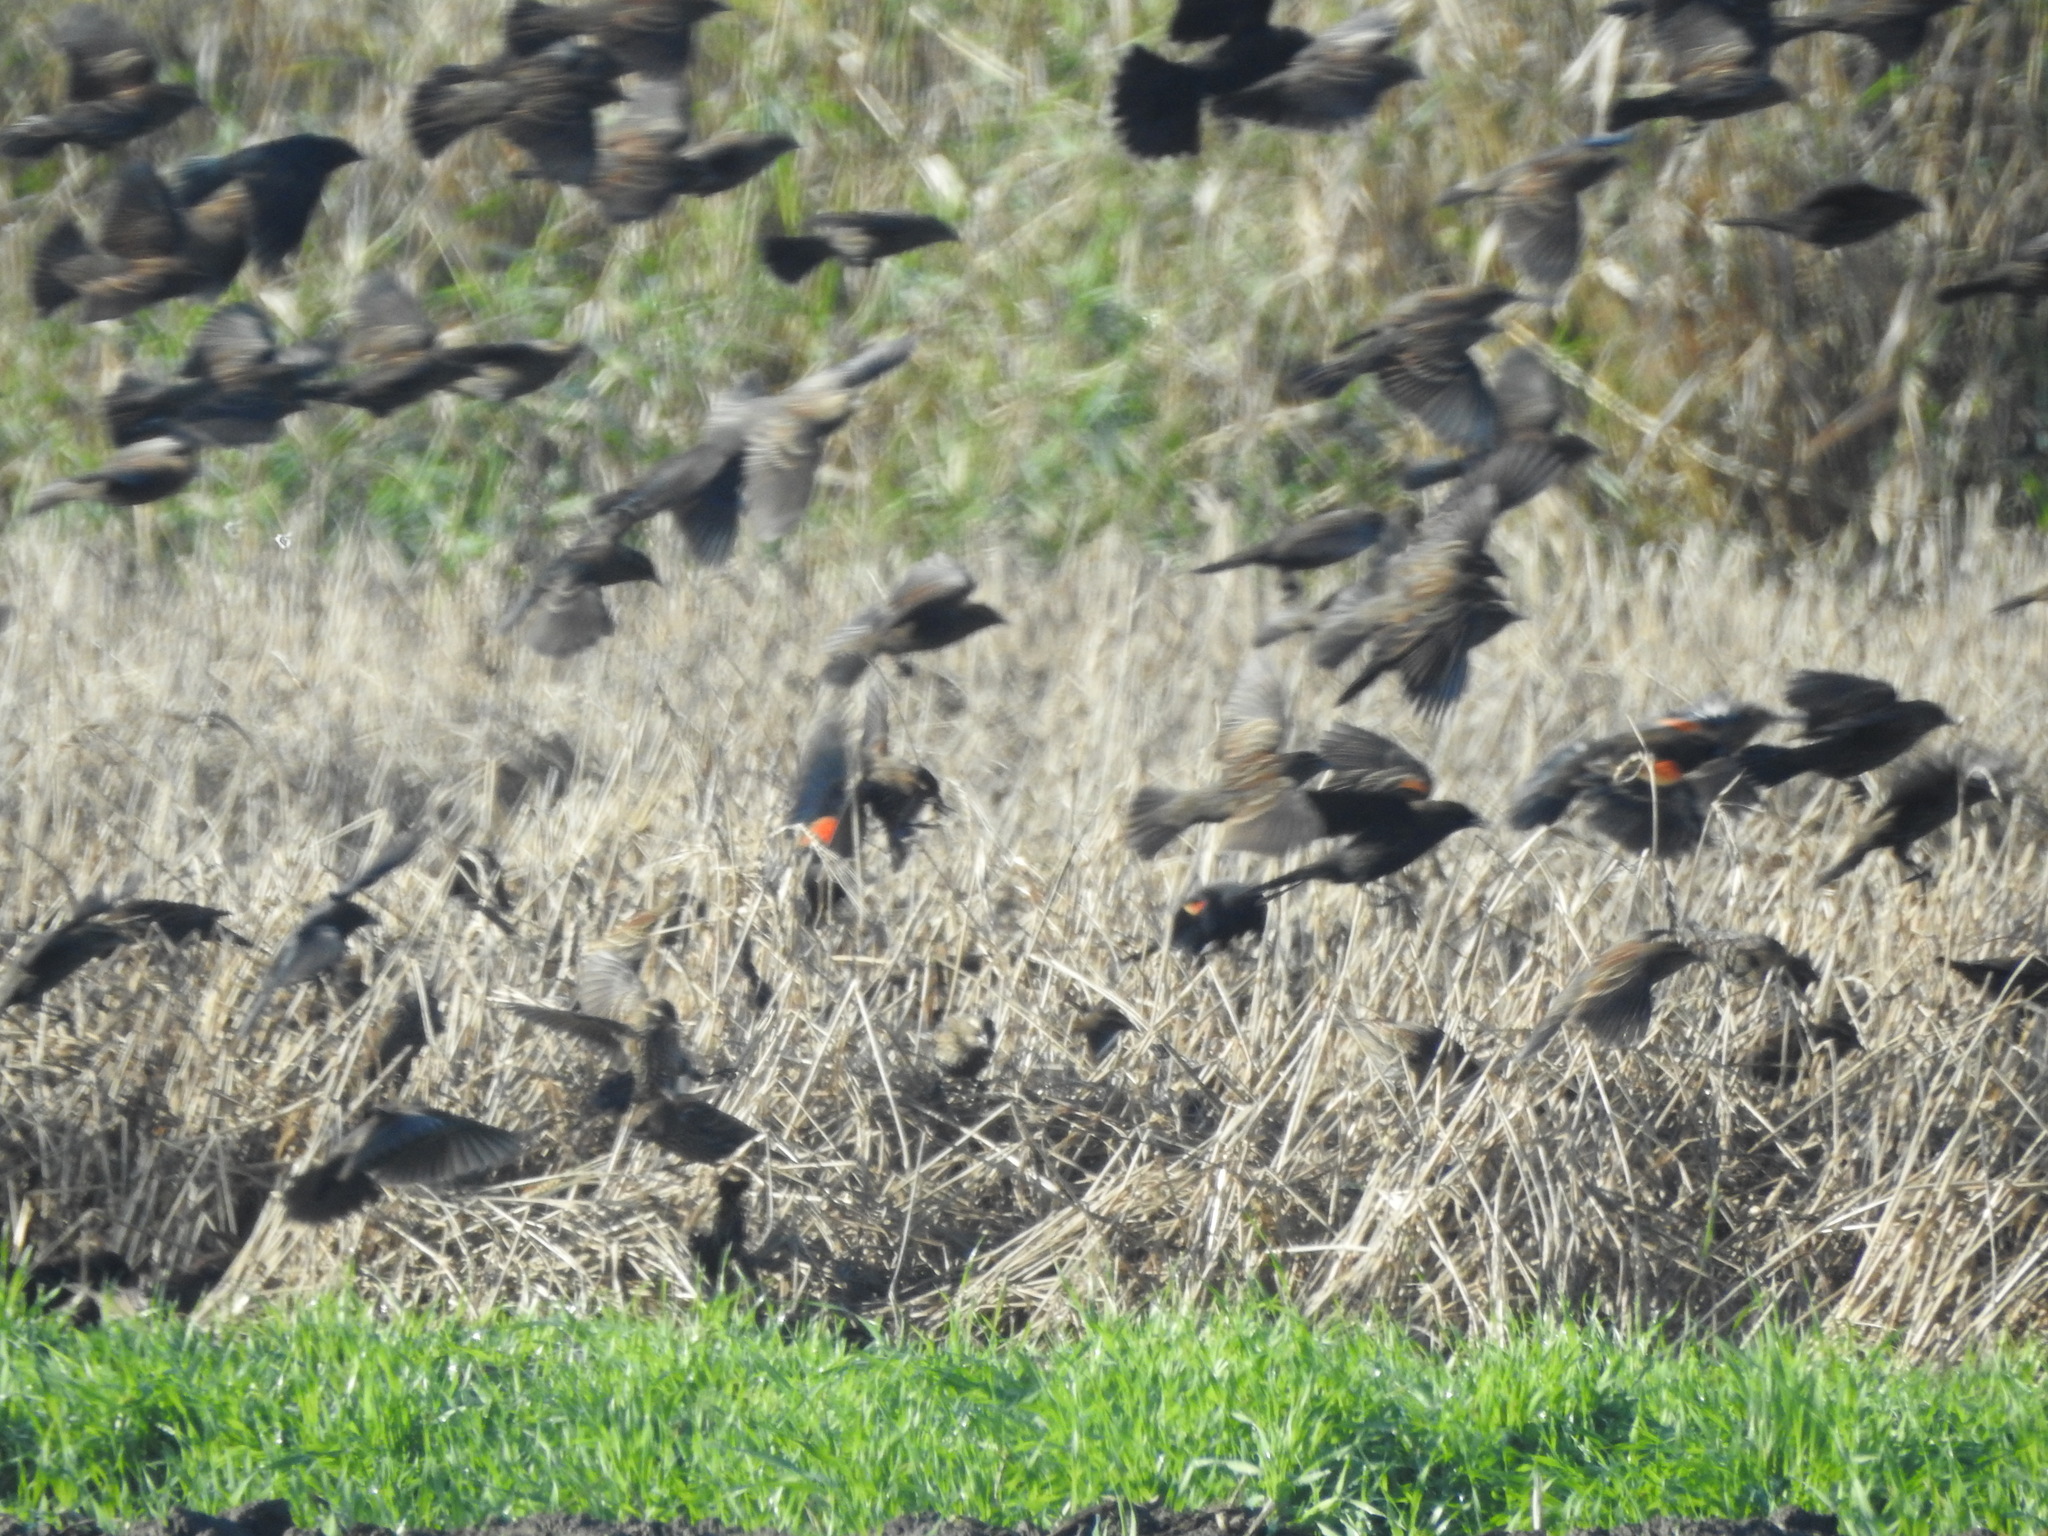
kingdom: Animalia
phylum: Chordata
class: Aves
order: Passeriformes
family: Icteridae
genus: Agelaius
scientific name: Agelaius phoeniceus
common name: Red-winged blackbird
